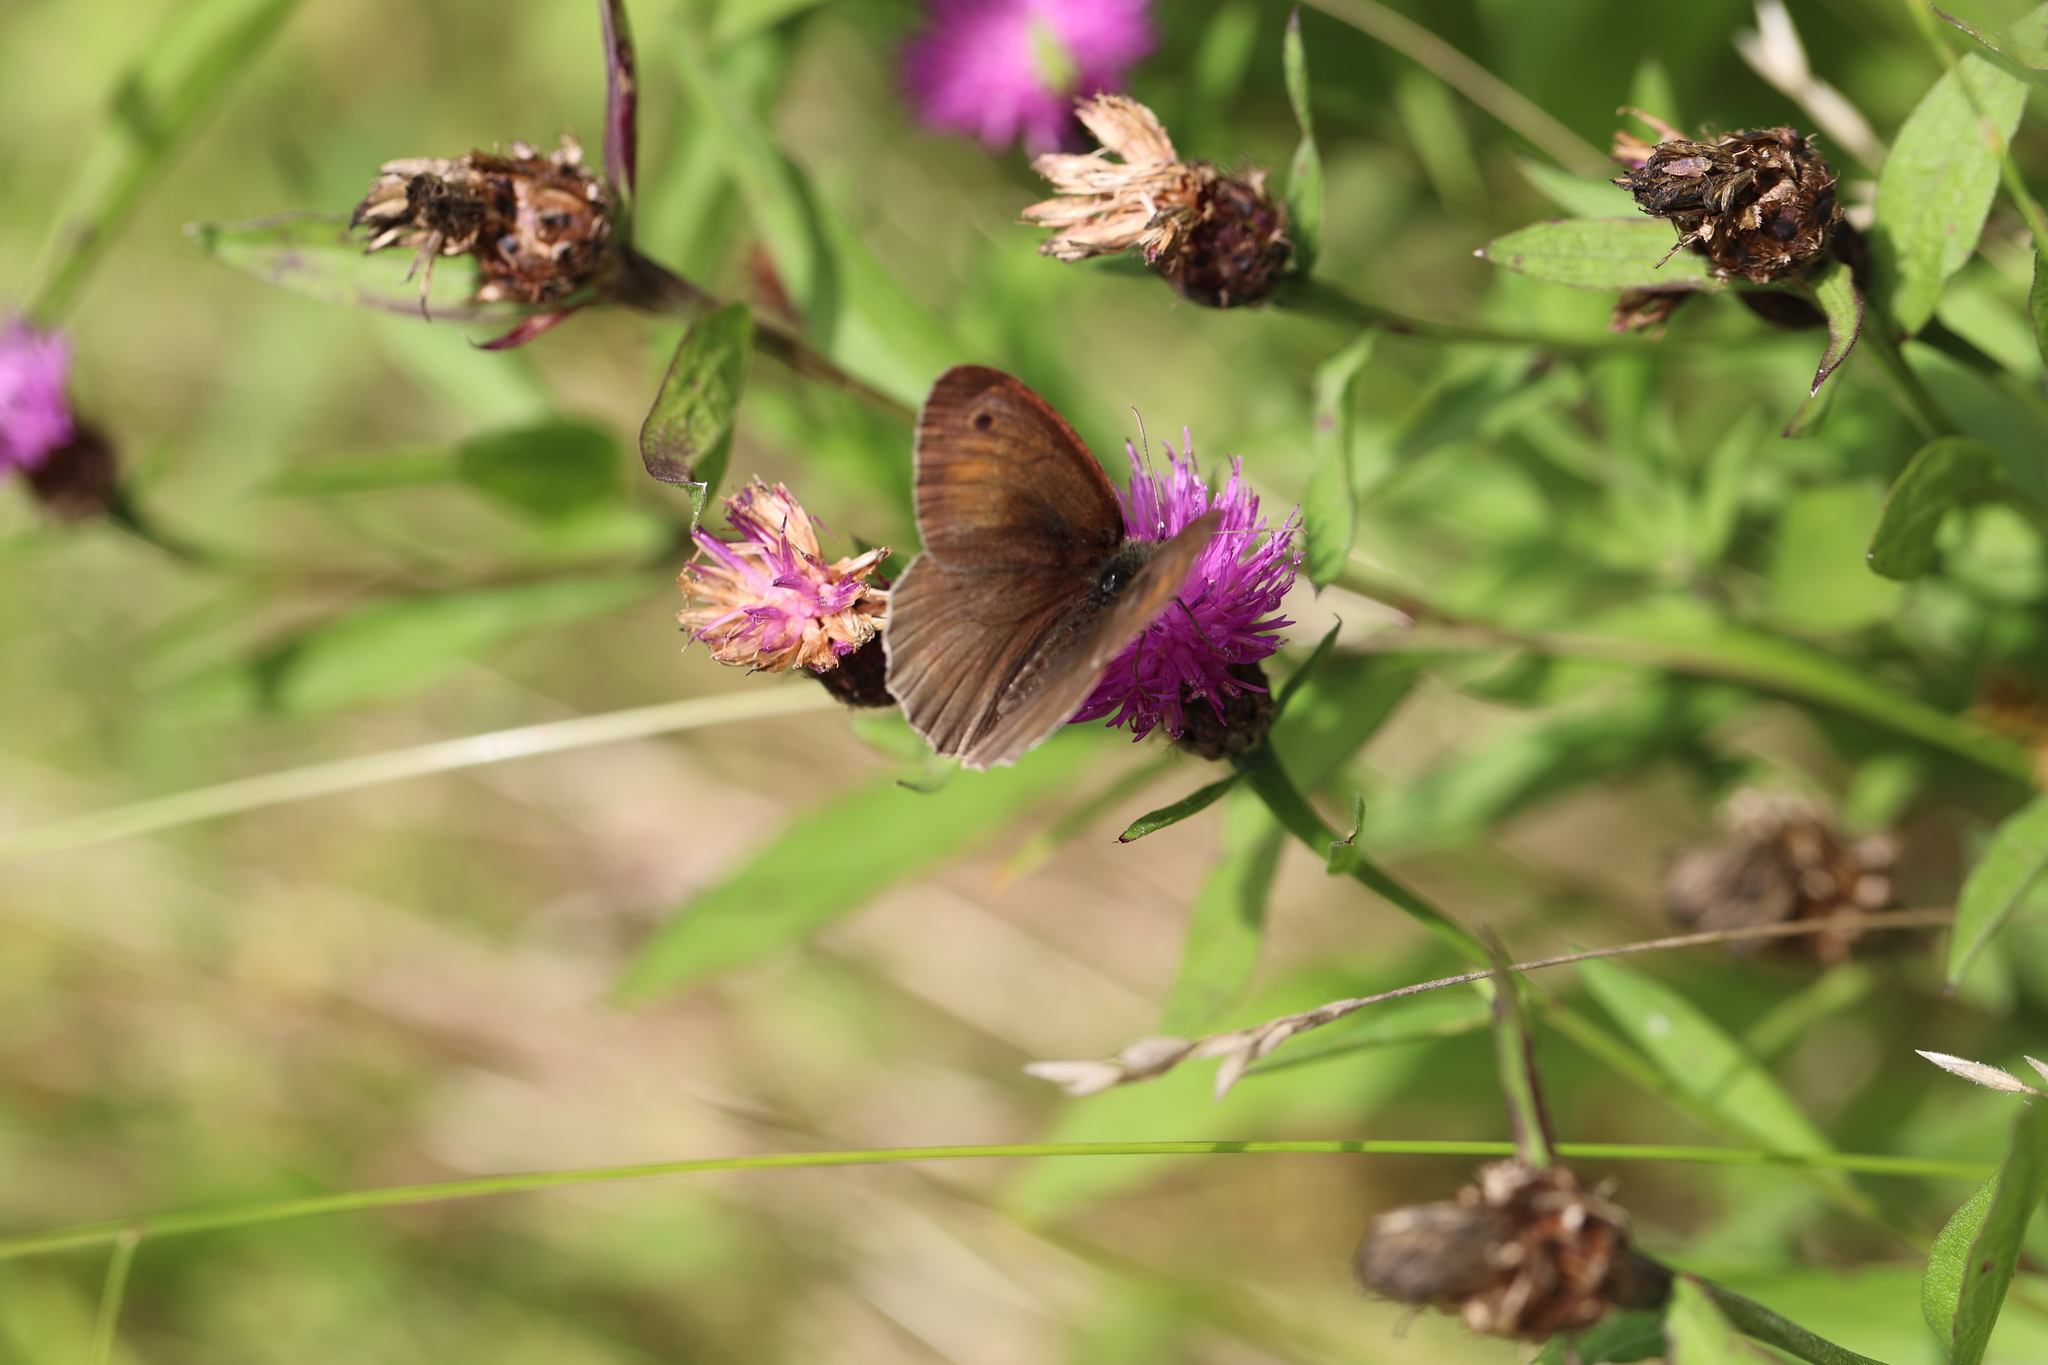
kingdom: Animalia
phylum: Arthropoda
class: Insecta
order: Lepidoptera
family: Nymphalidae
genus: Maniola
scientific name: Maniola jurtina
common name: Meadow brown
